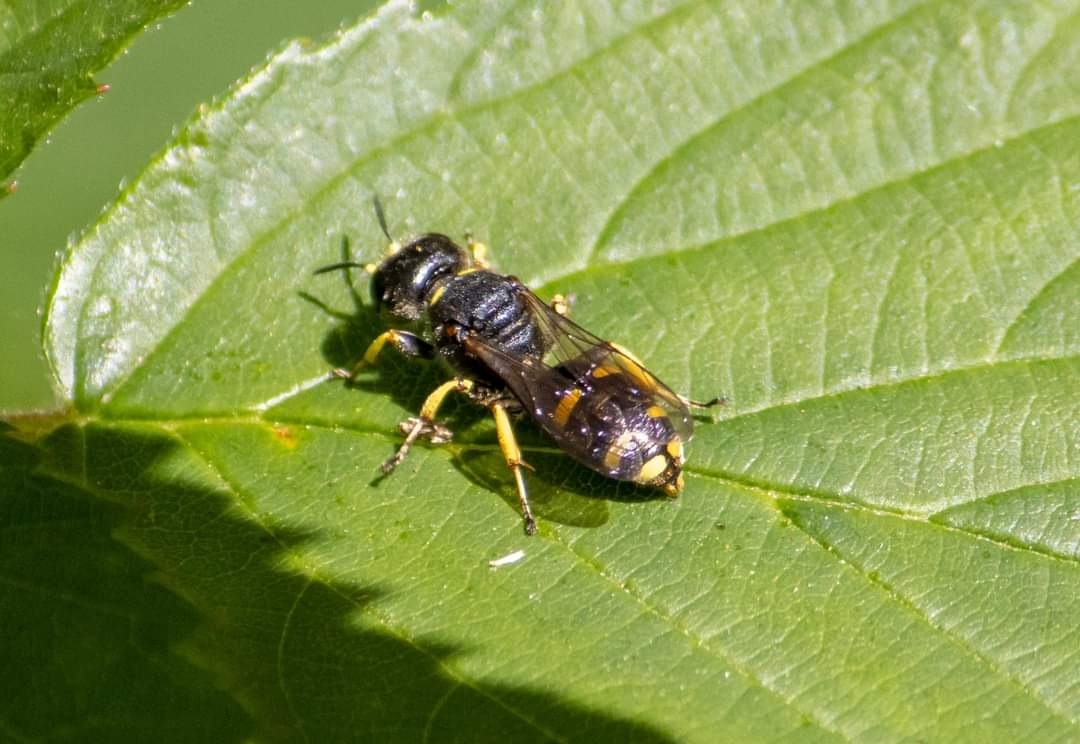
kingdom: Animalia
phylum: Arthropoda
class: Insecta
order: Hymenoptera
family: Crabronidae
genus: Ectemnius
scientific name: Ectemnius continuus
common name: Common ectemnius
